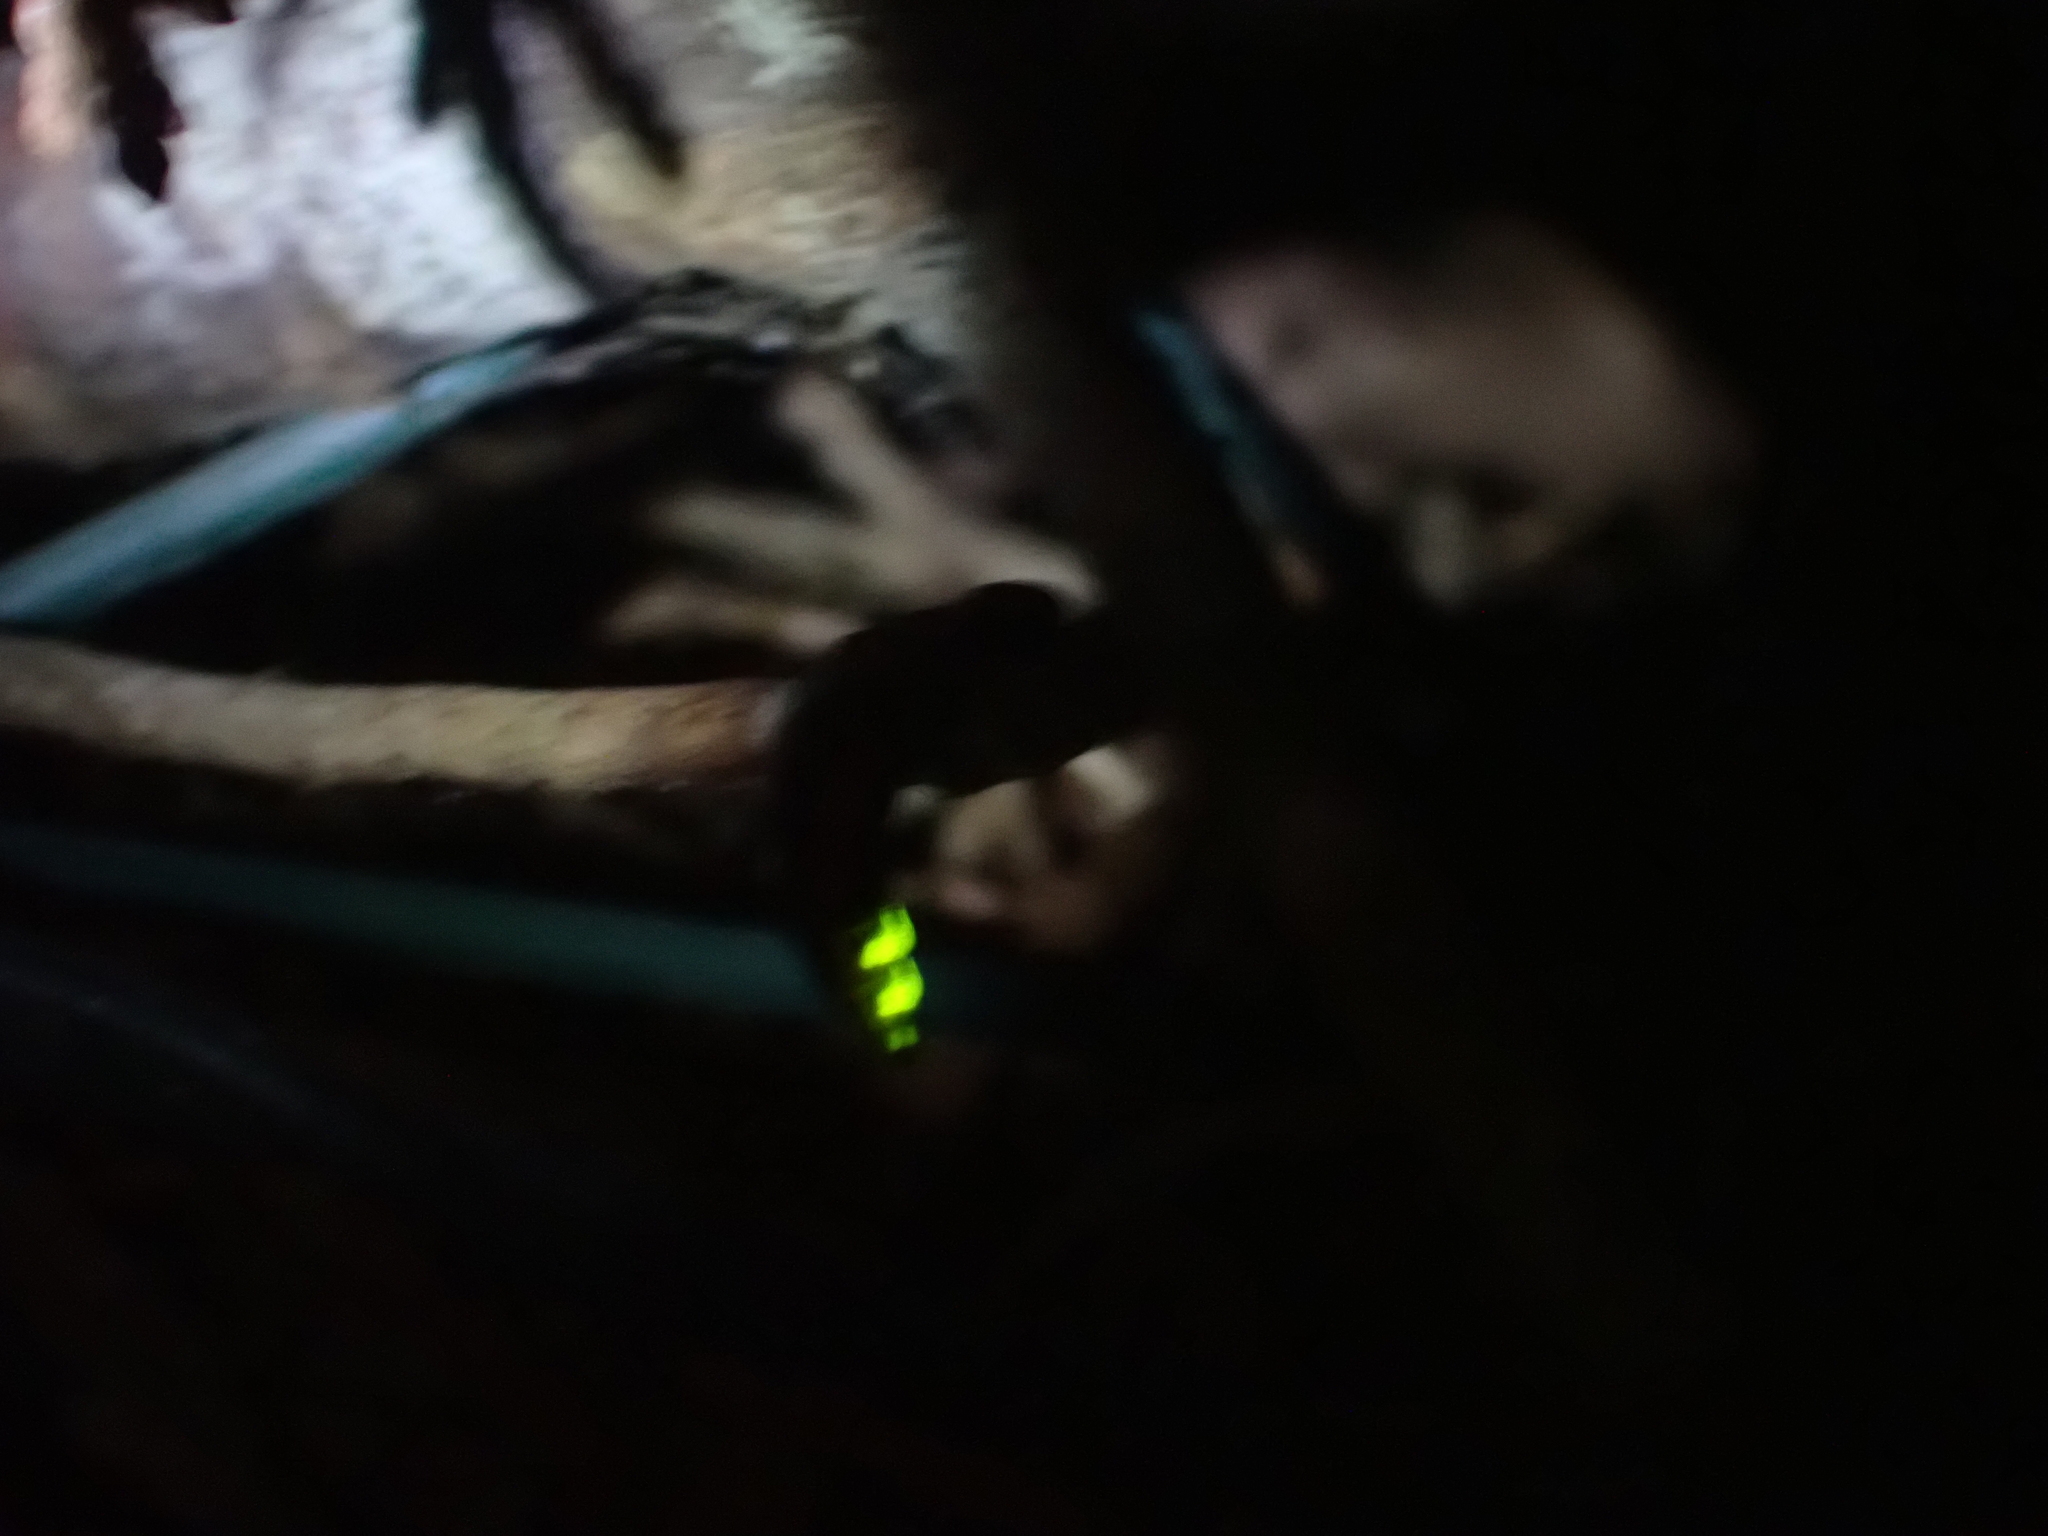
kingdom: Animalia
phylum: Arthropoda
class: Insecta
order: Coleoptera
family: Lampyridae
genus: Lampyris
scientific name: Lampyris noctiluca
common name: Glow-worm
